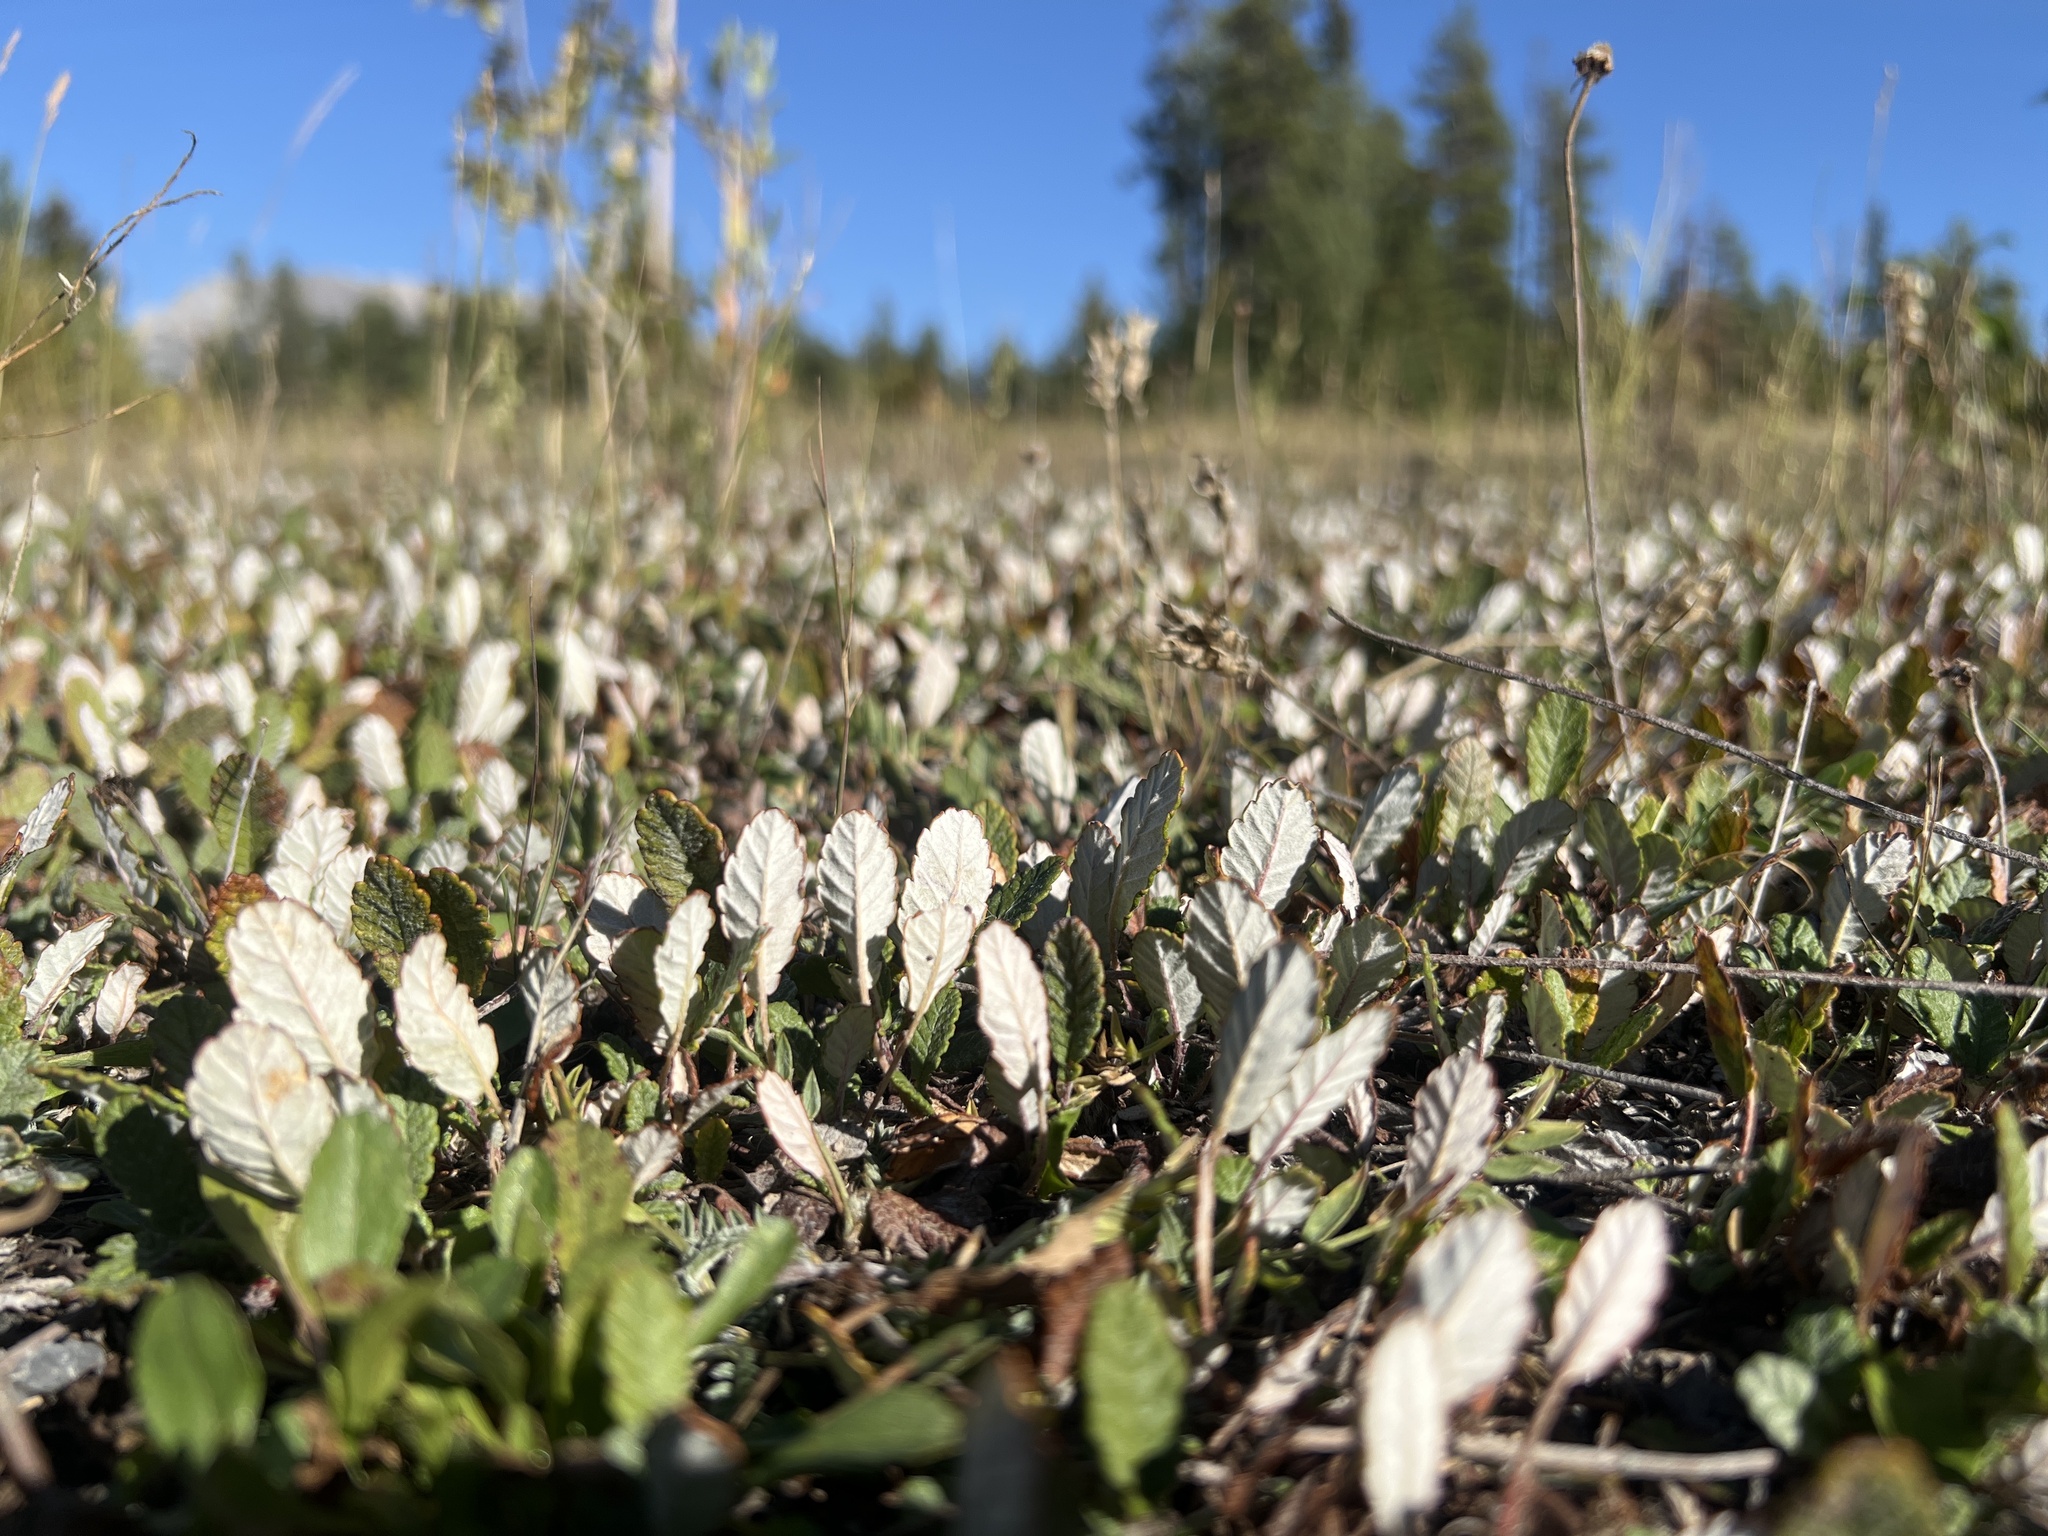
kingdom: Plantae
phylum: Tracheophyta
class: Magnoliopsida
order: Rosales
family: Rosaceae
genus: Dryas
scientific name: Dryas drummondii
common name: Drummond's dryad
